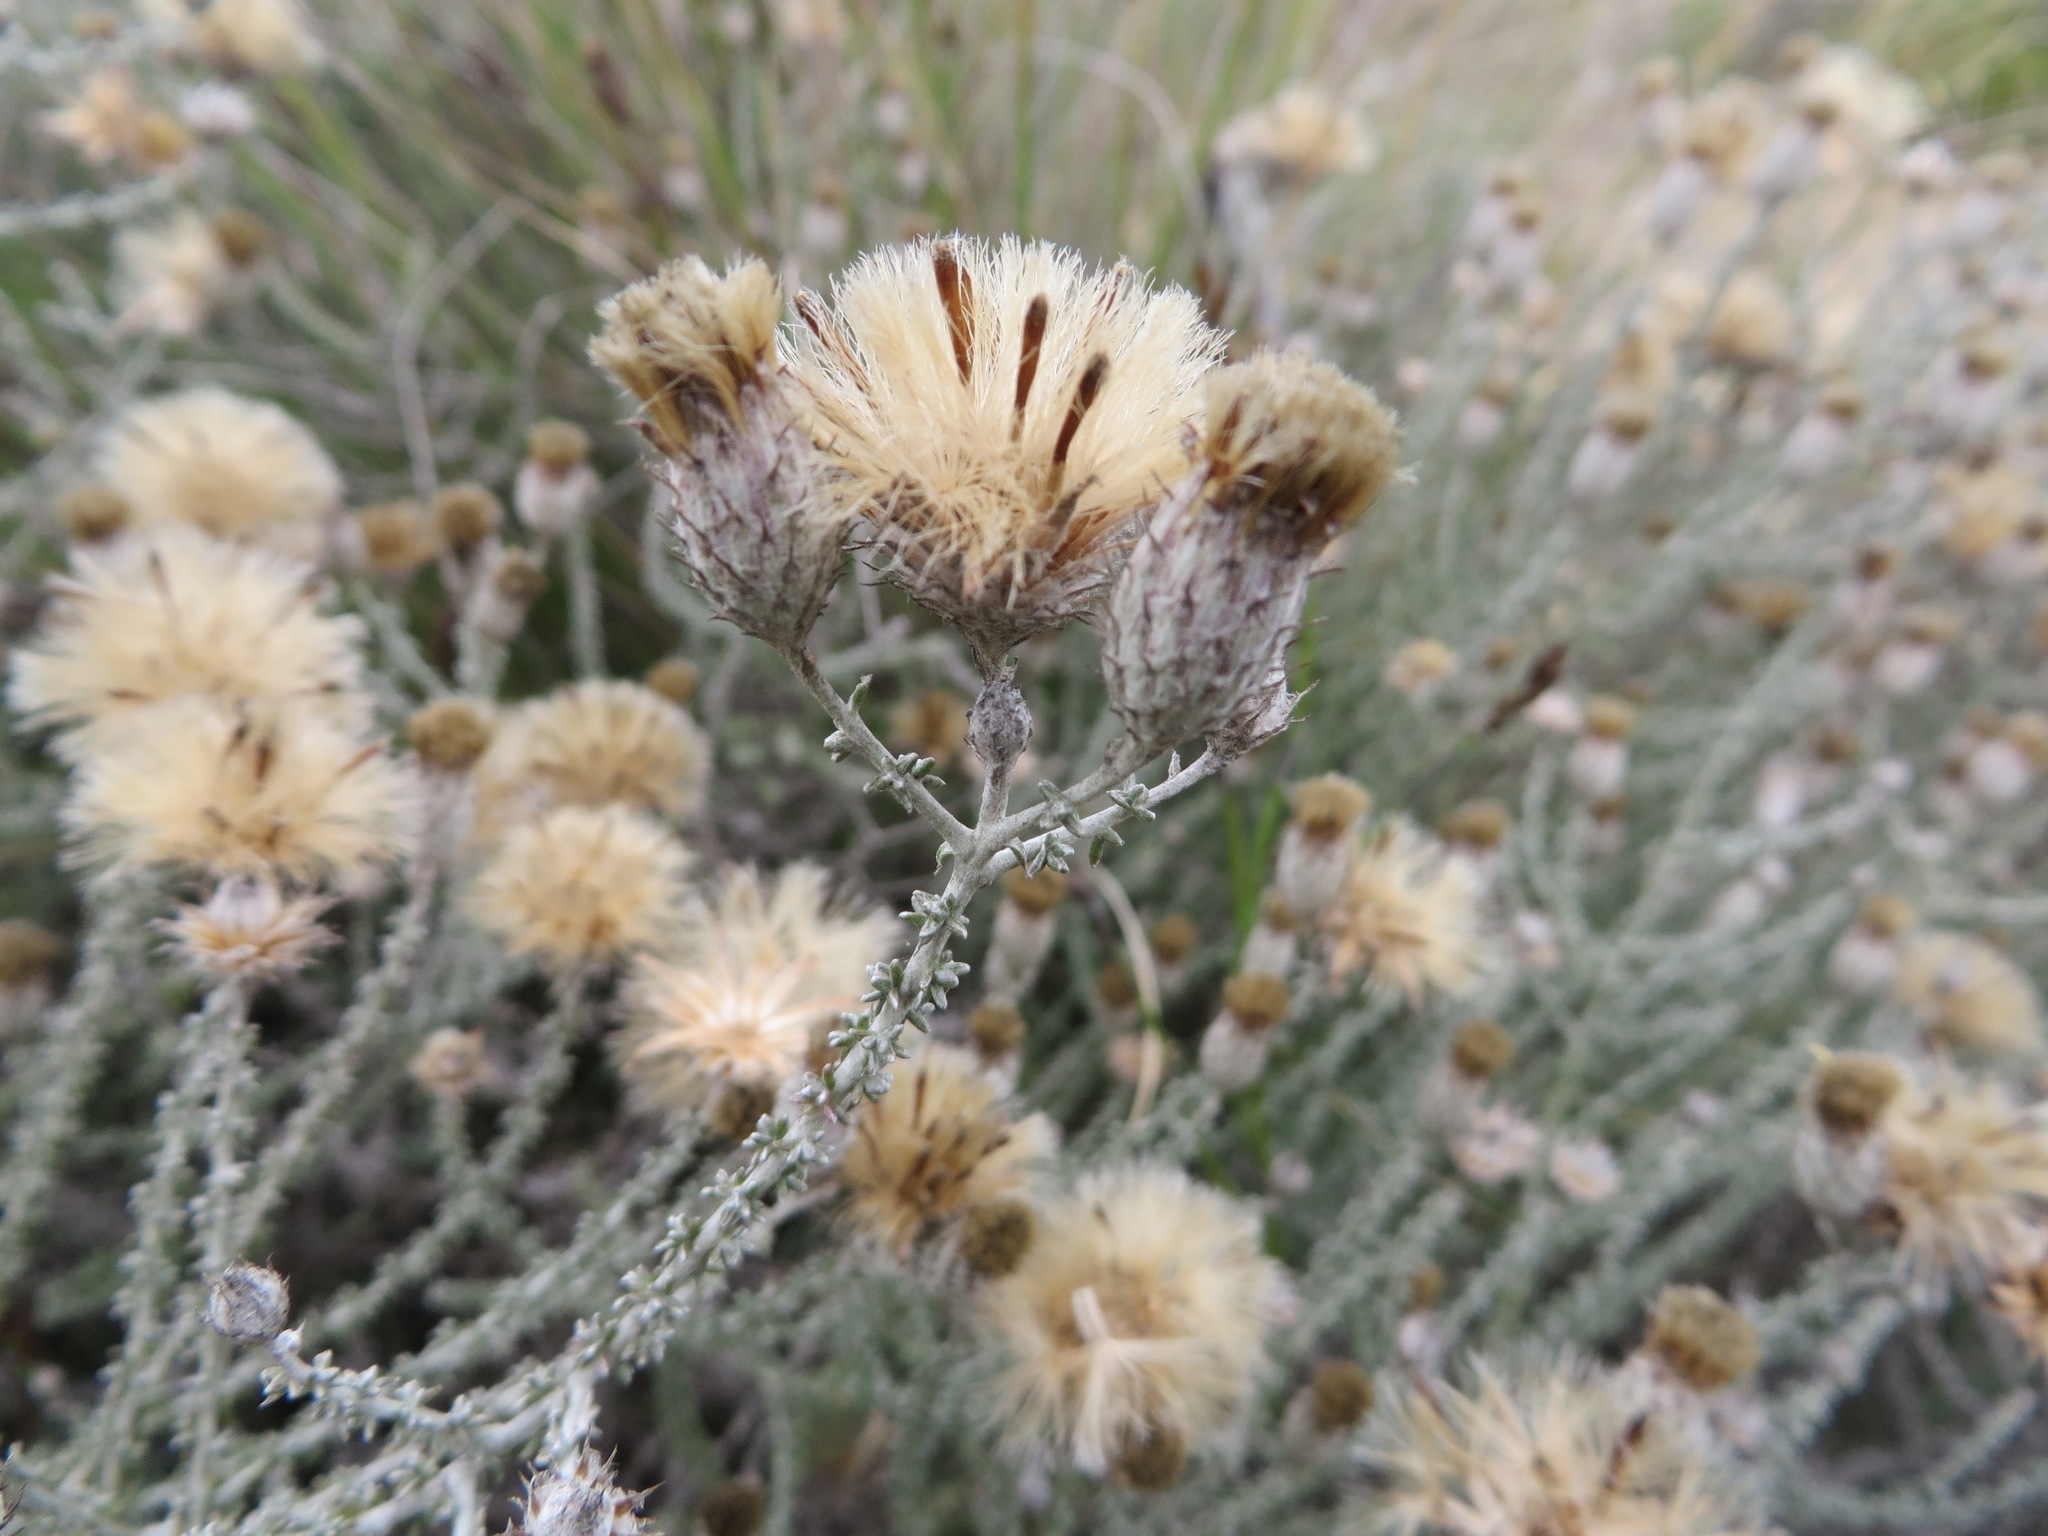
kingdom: Plantae
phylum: Tracheophyta
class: Magnoliopsida
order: Asterales
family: Asteraceae
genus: Lachnospermum
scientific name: Lachnospermum fasciculatum
